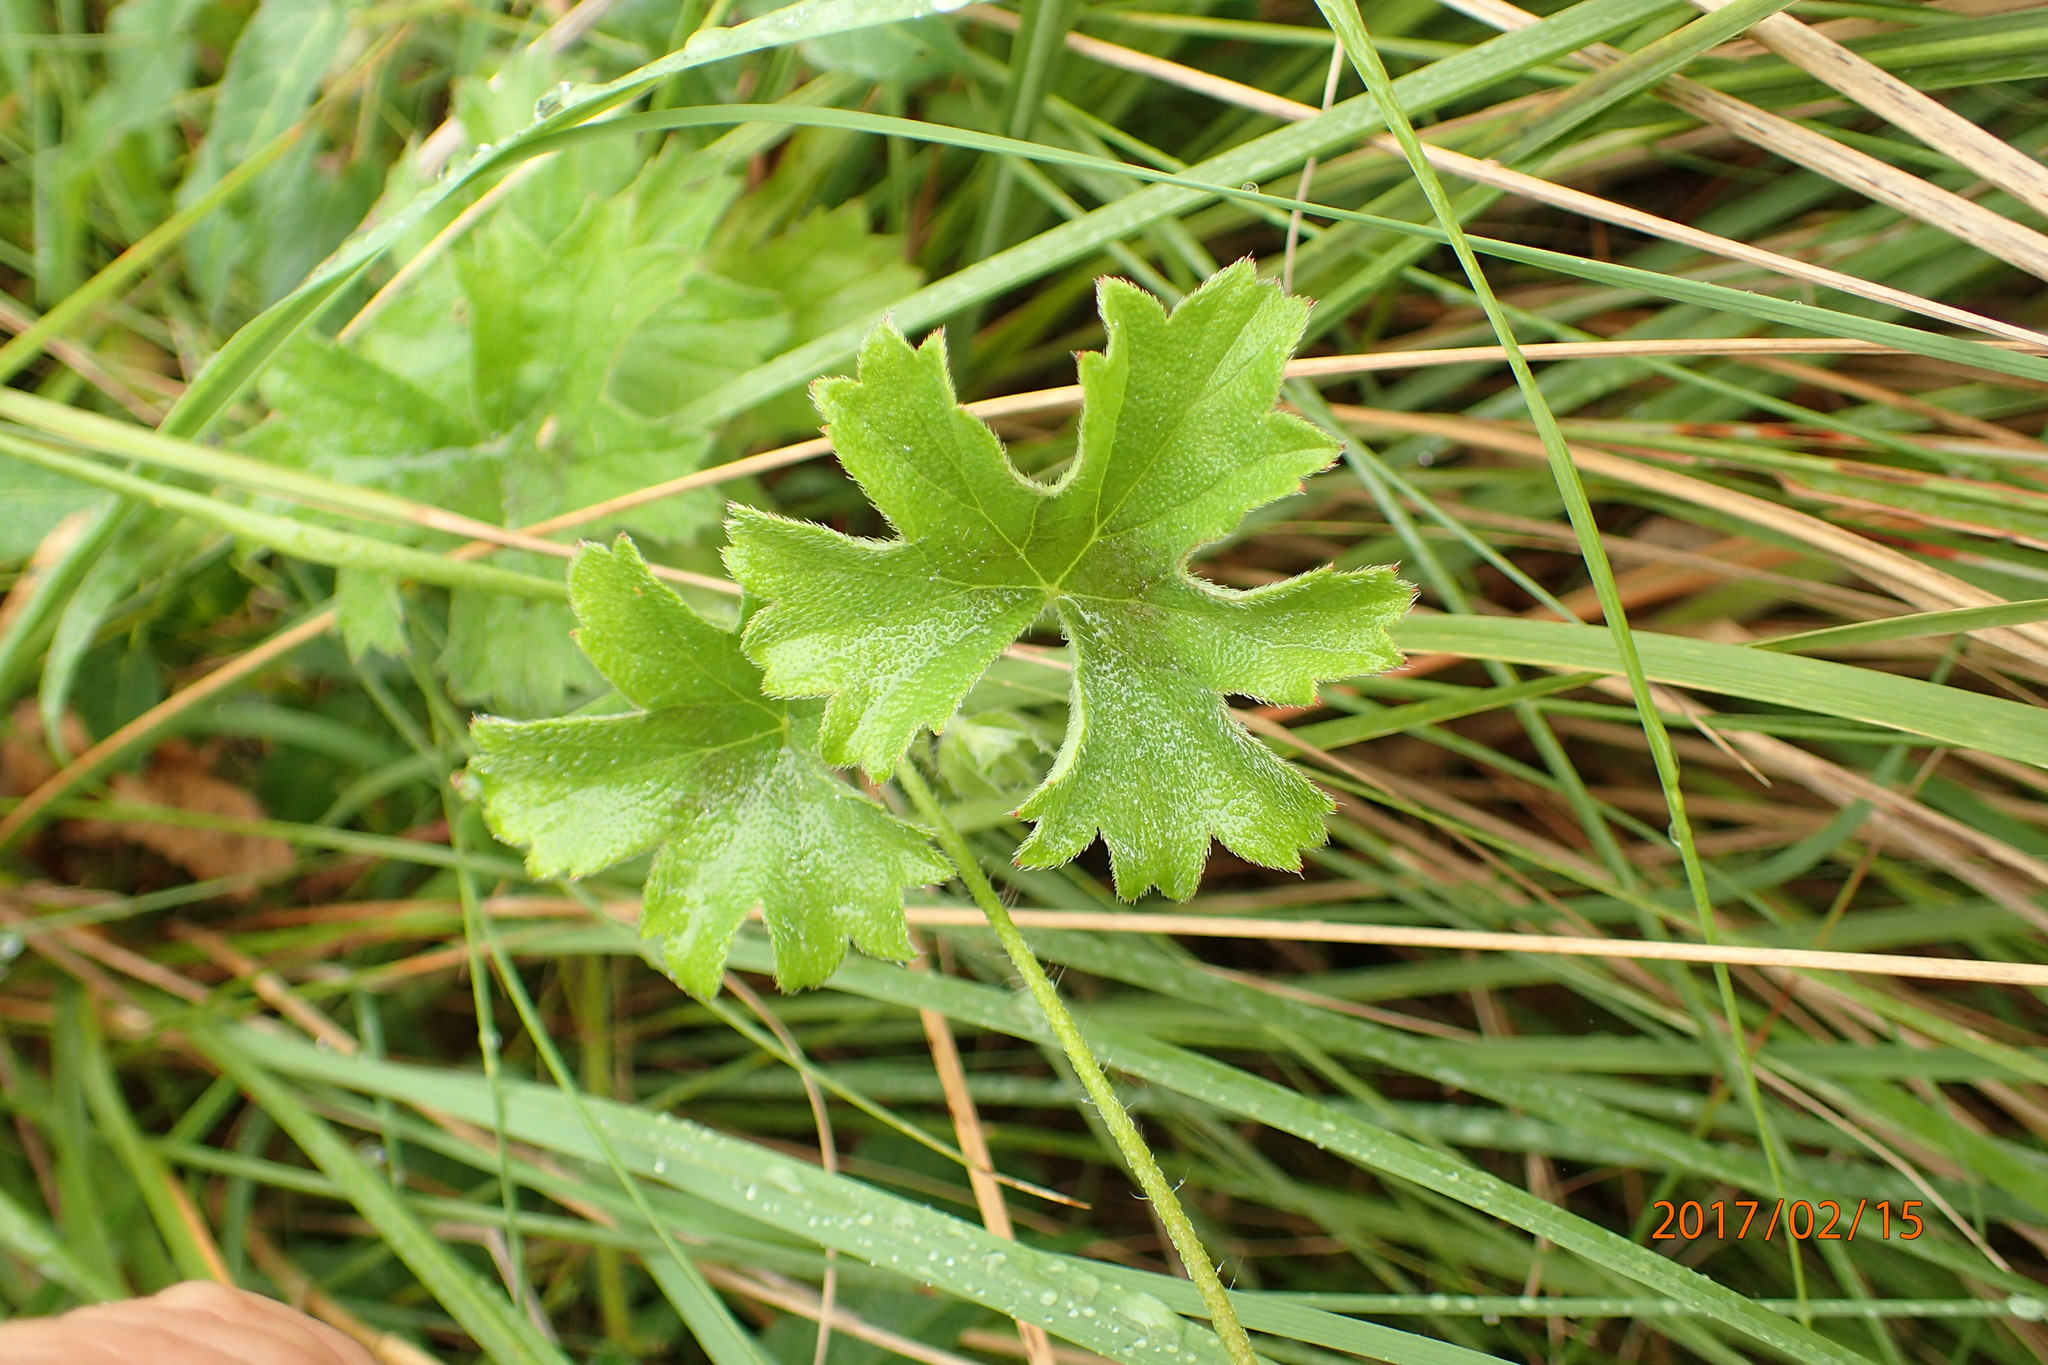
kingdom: Plantae
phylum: Tracheophyta
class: Magnoliopsida
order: Geraniales
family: Geraniaceae
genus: Pelargonium
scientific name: Pelargonium alchemilloides
